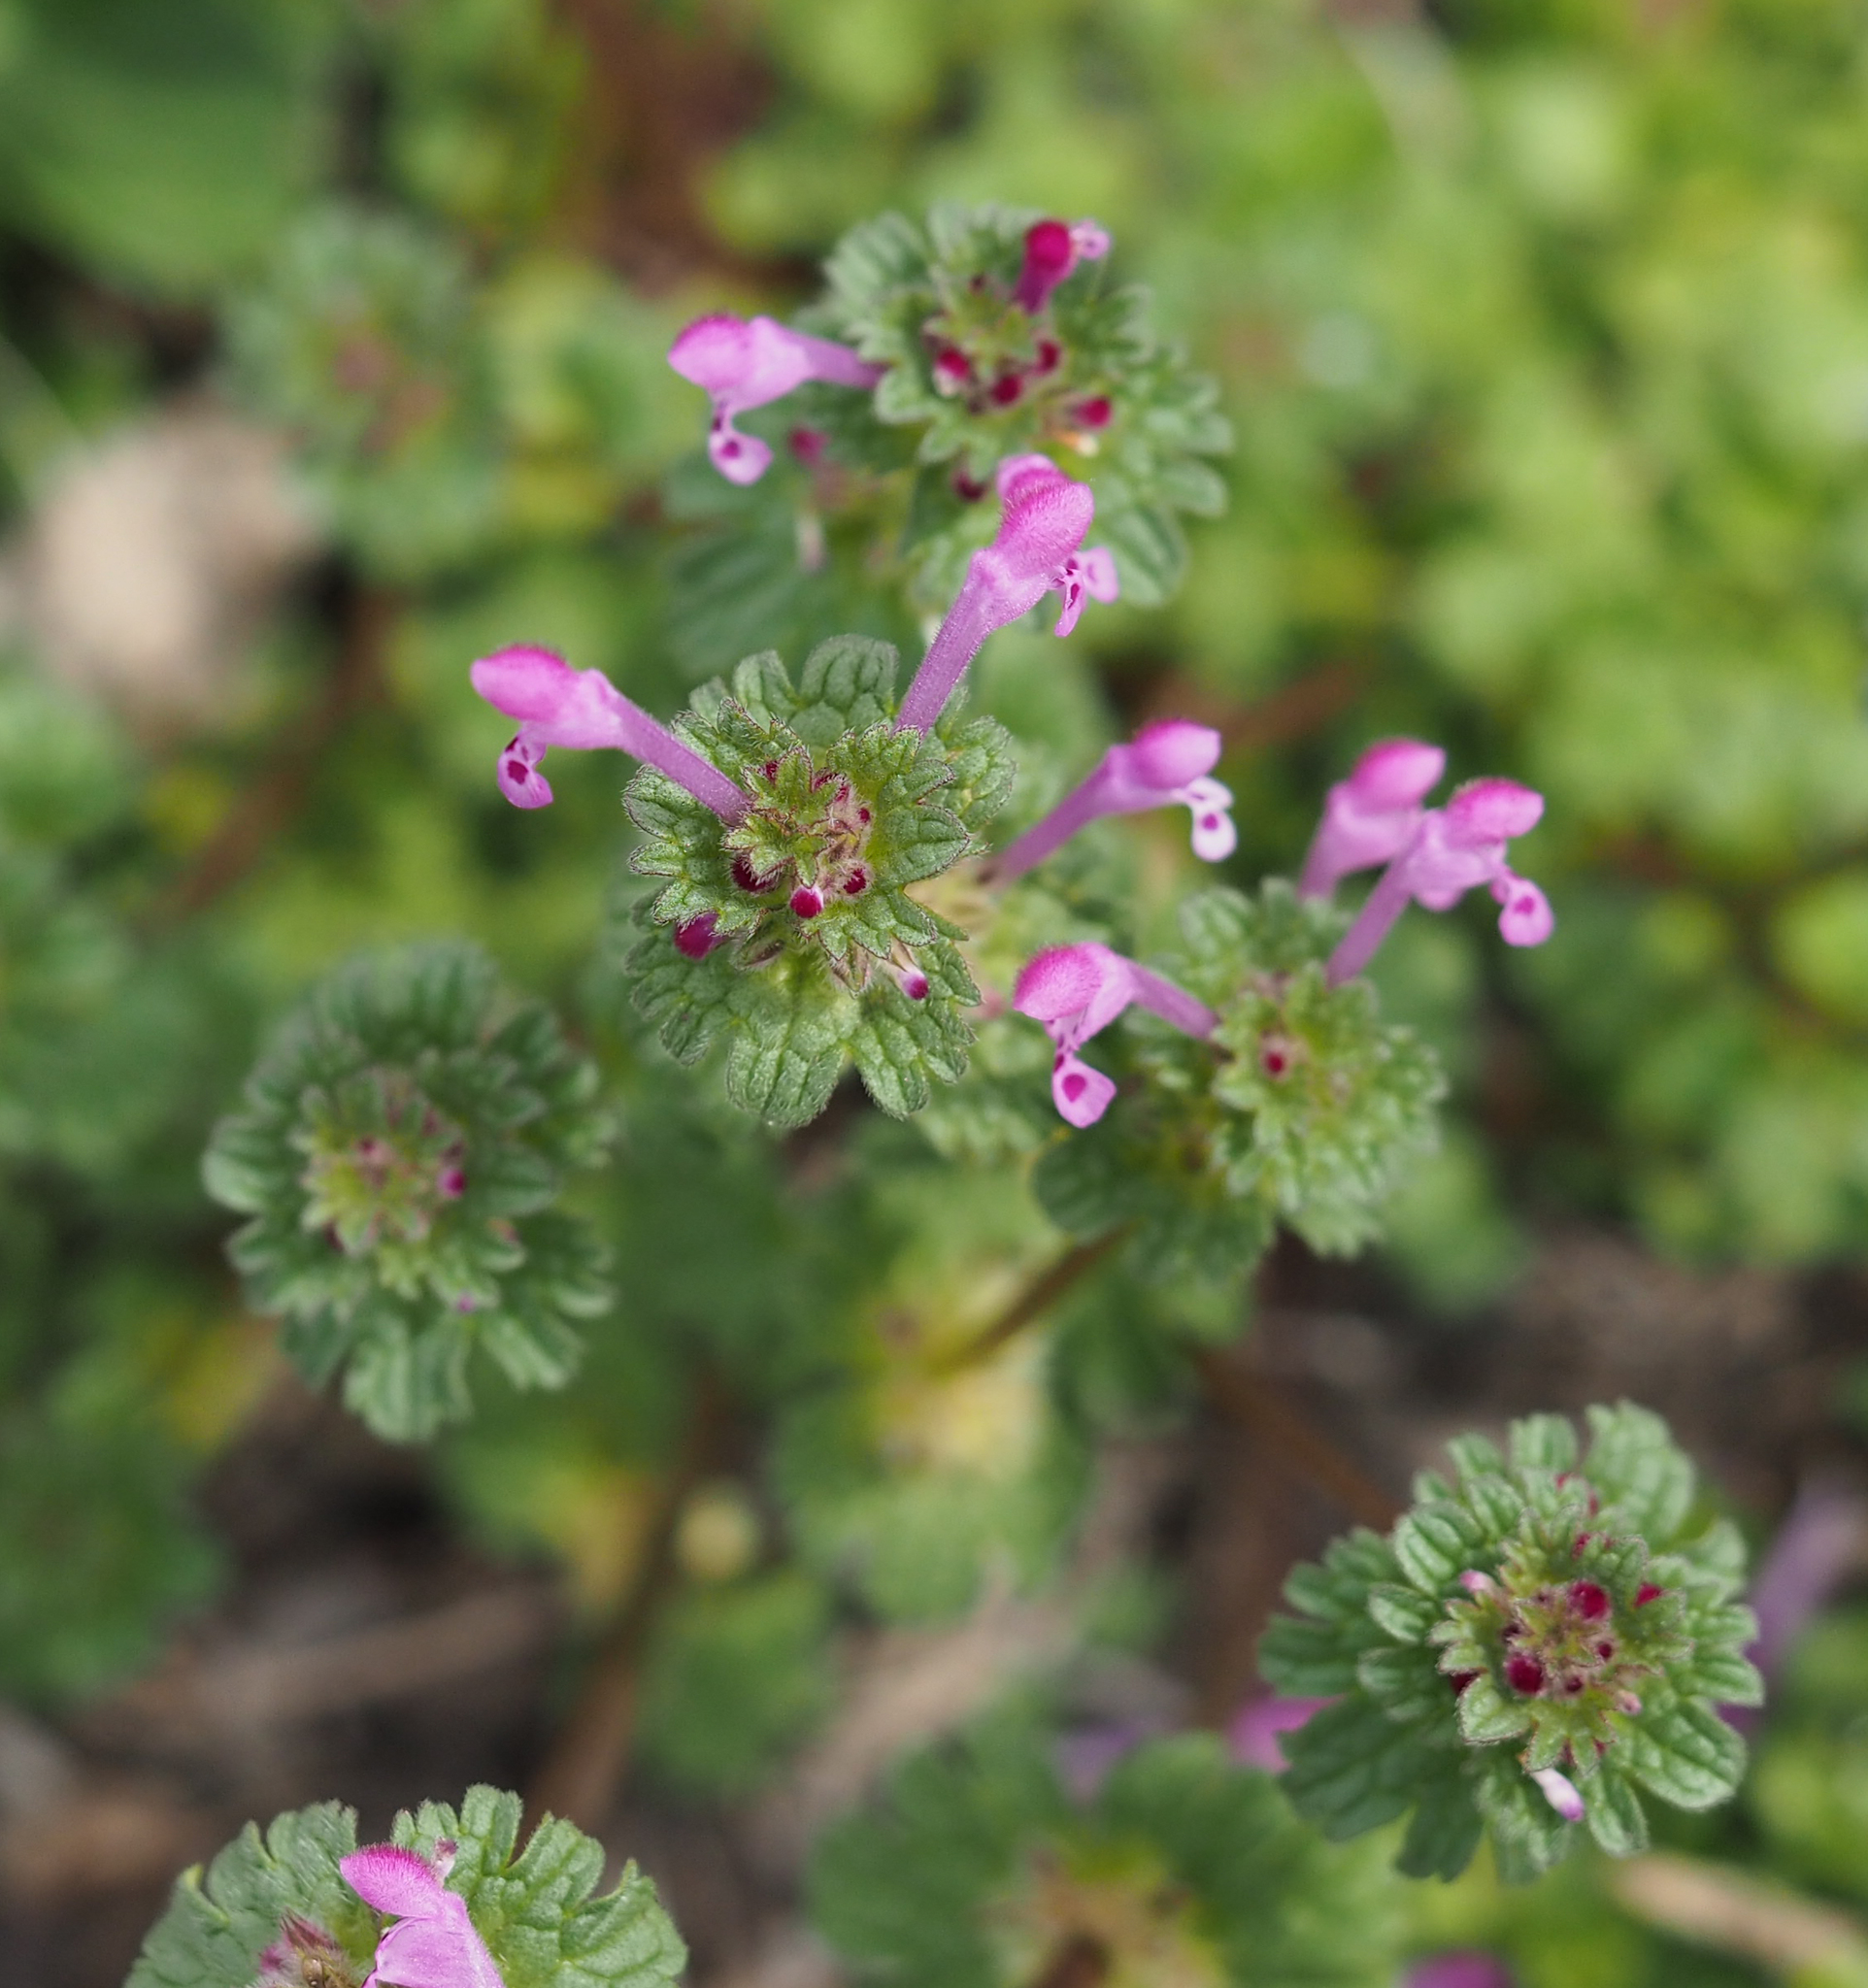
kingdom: Plantae
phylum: Tracheophyta
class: Magnoliopsida
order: Lamiales
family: Lamiaceae
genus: Lamium
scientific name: Lamium amplexicaule
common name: Henbit dead-nettle
